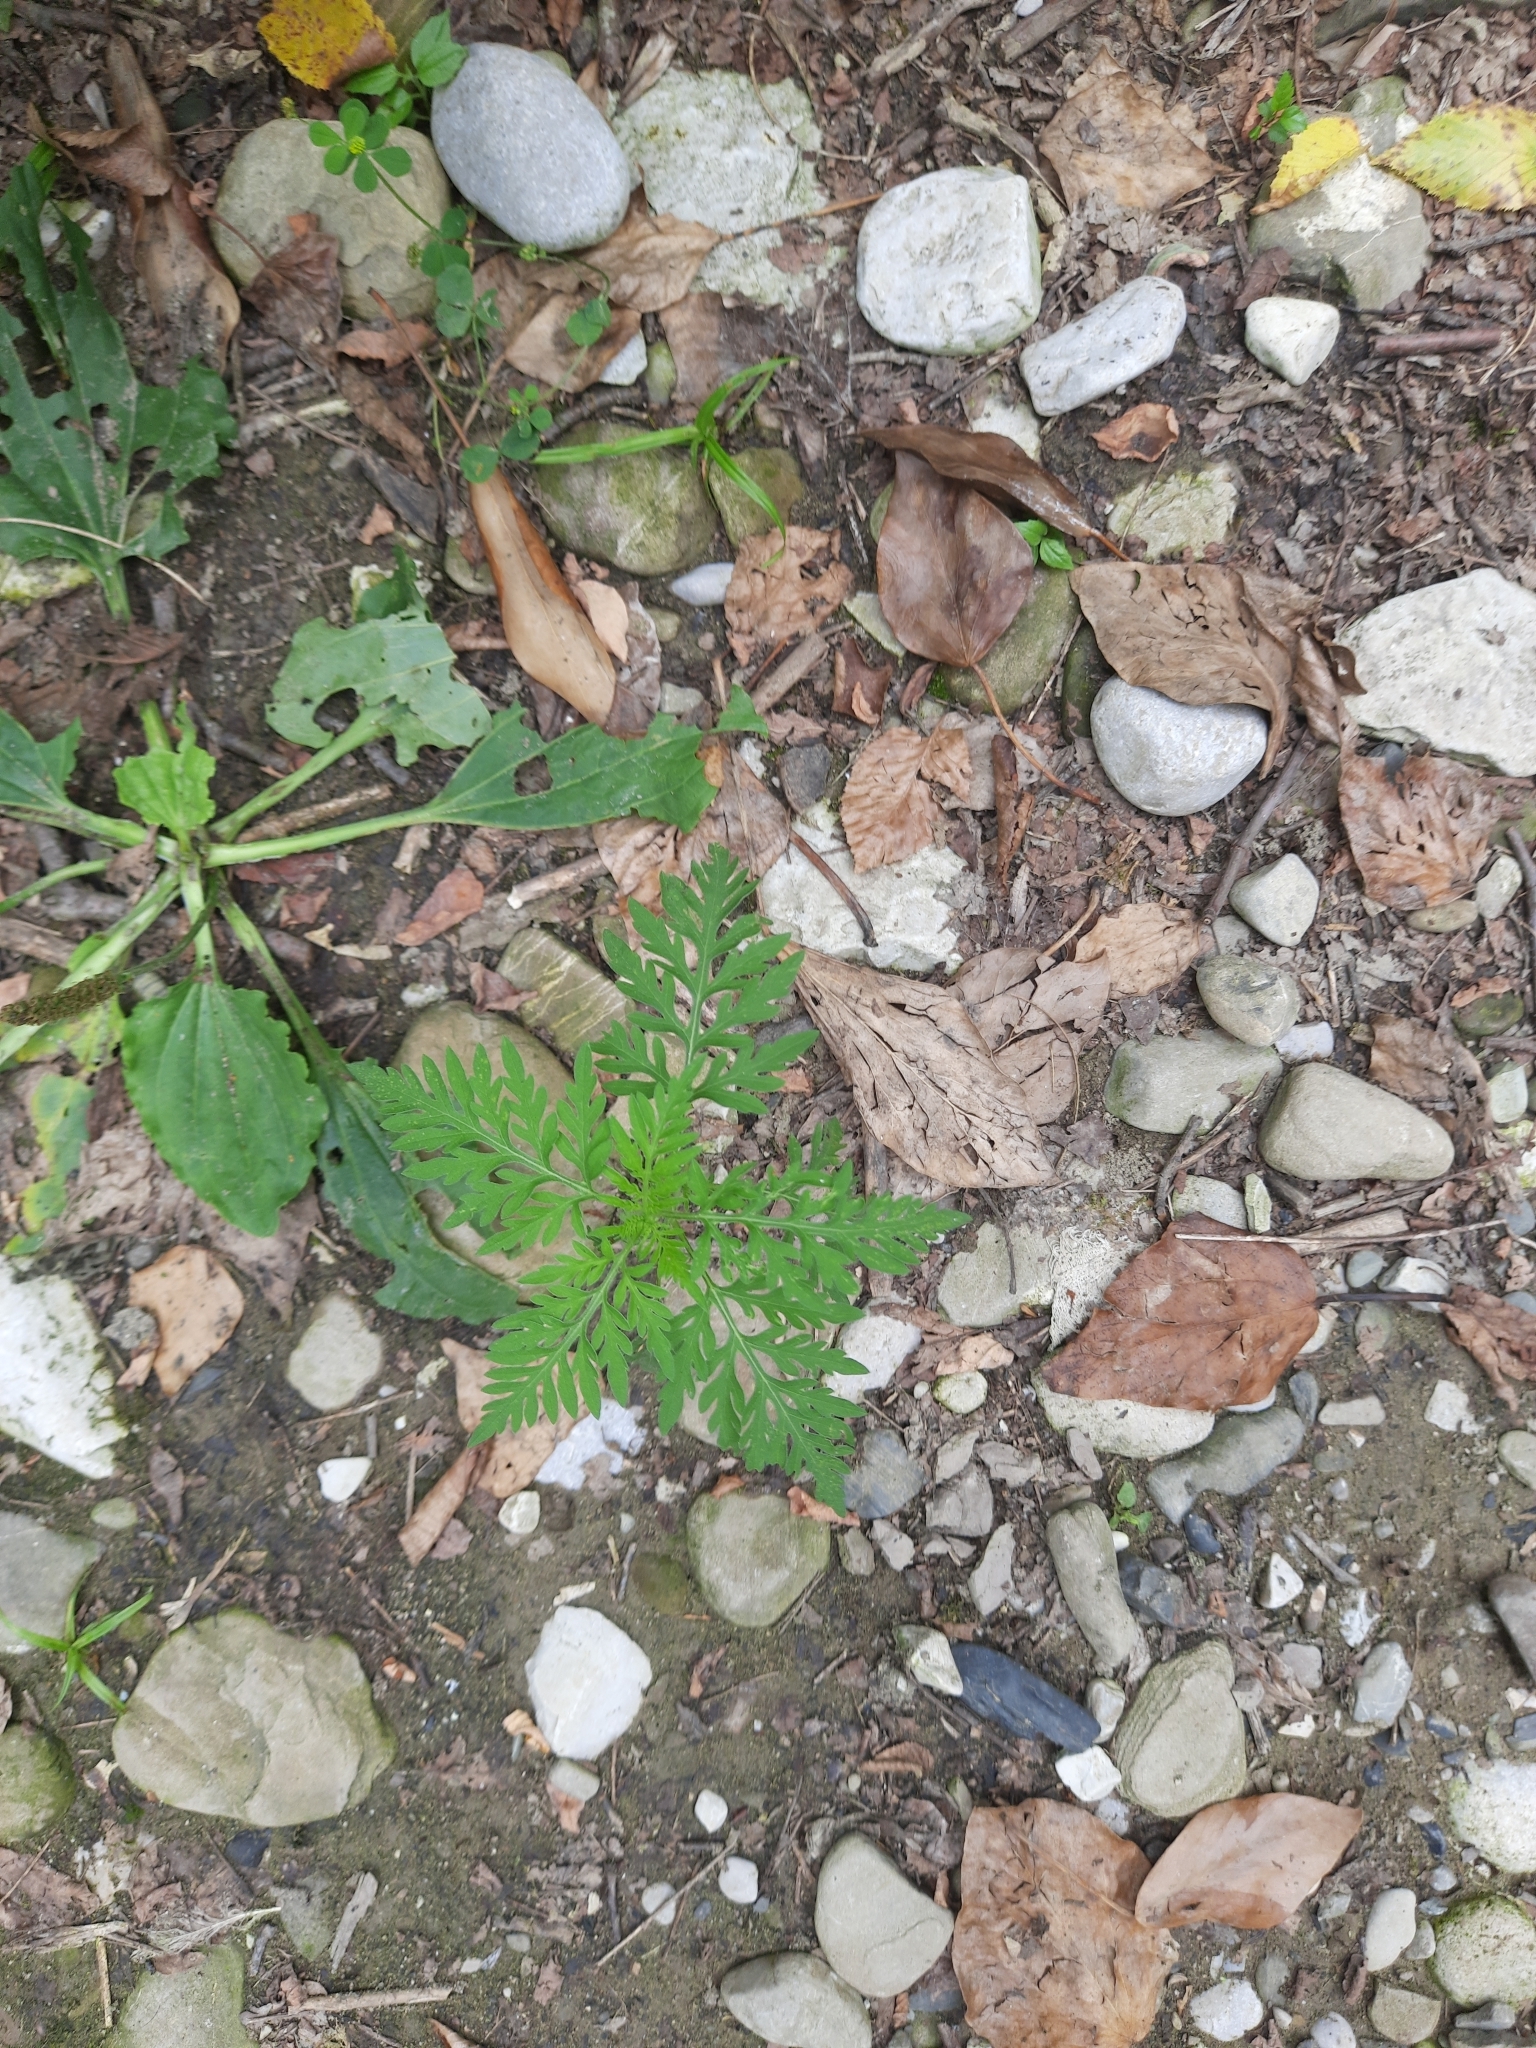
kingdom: Plantae
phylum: Tracheophyta
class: Magnoliopsida
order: Asterales
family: Asteraceae
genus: Ambrosia
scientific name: Ambrosia artemisiifolia
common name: Annual ragweed
